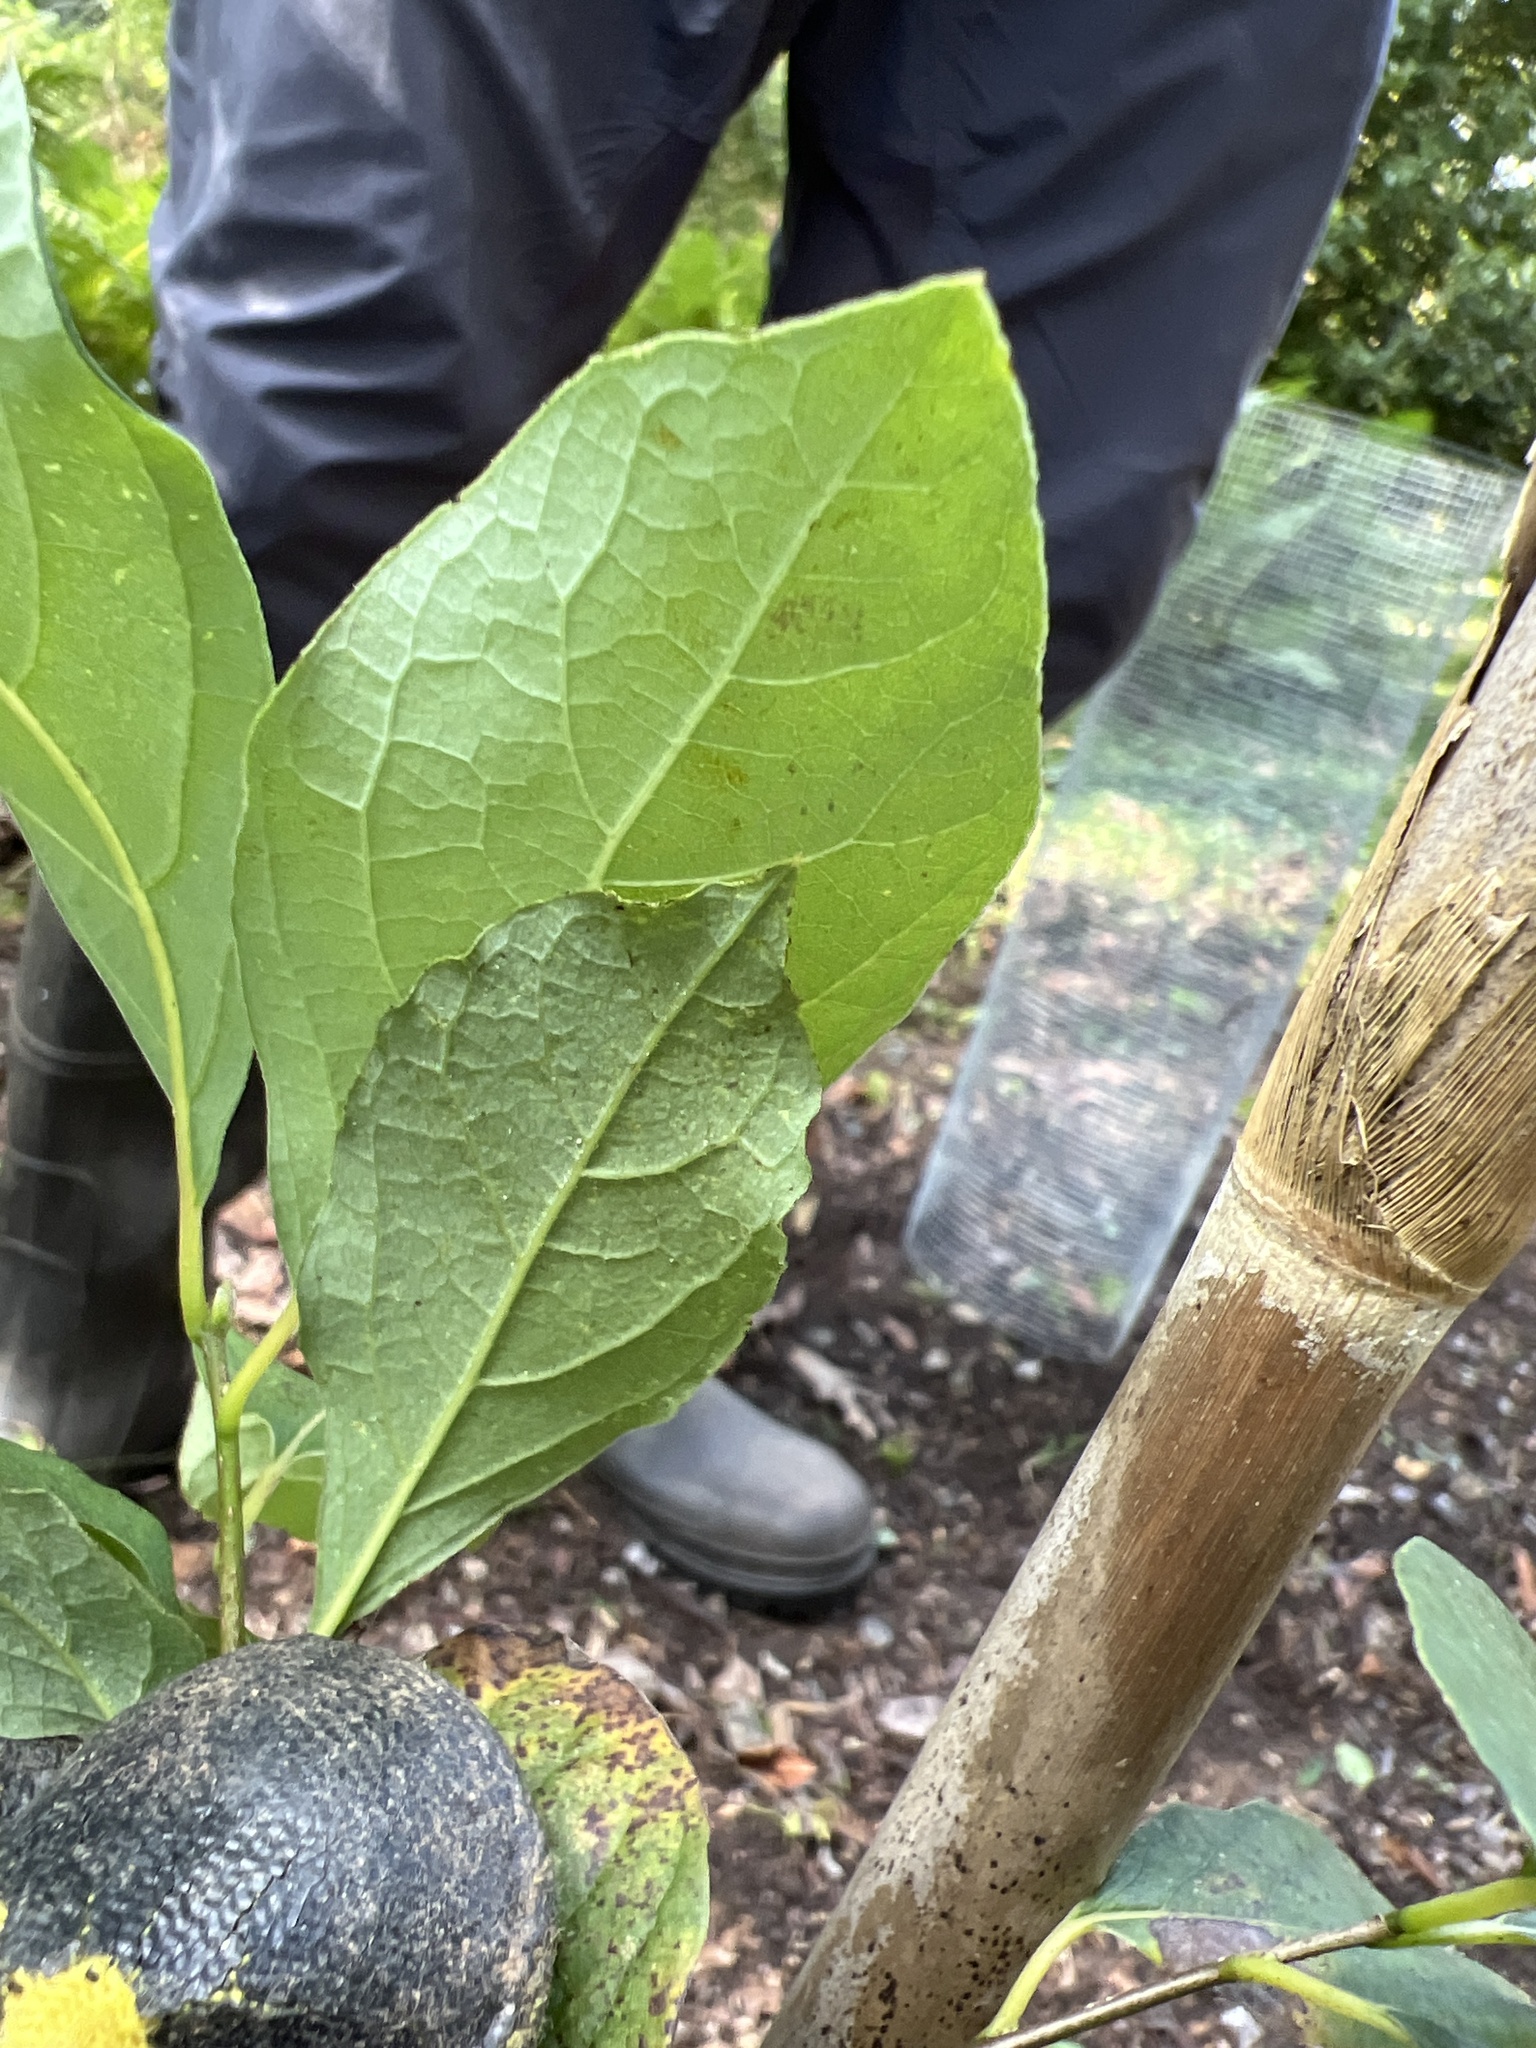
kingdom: Plantae
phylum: Tracheophyta
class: Magnoliopsida
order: Laurales
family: Lauraceae
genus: Lindera
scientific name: Lindera benzoin
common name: Spicebush
